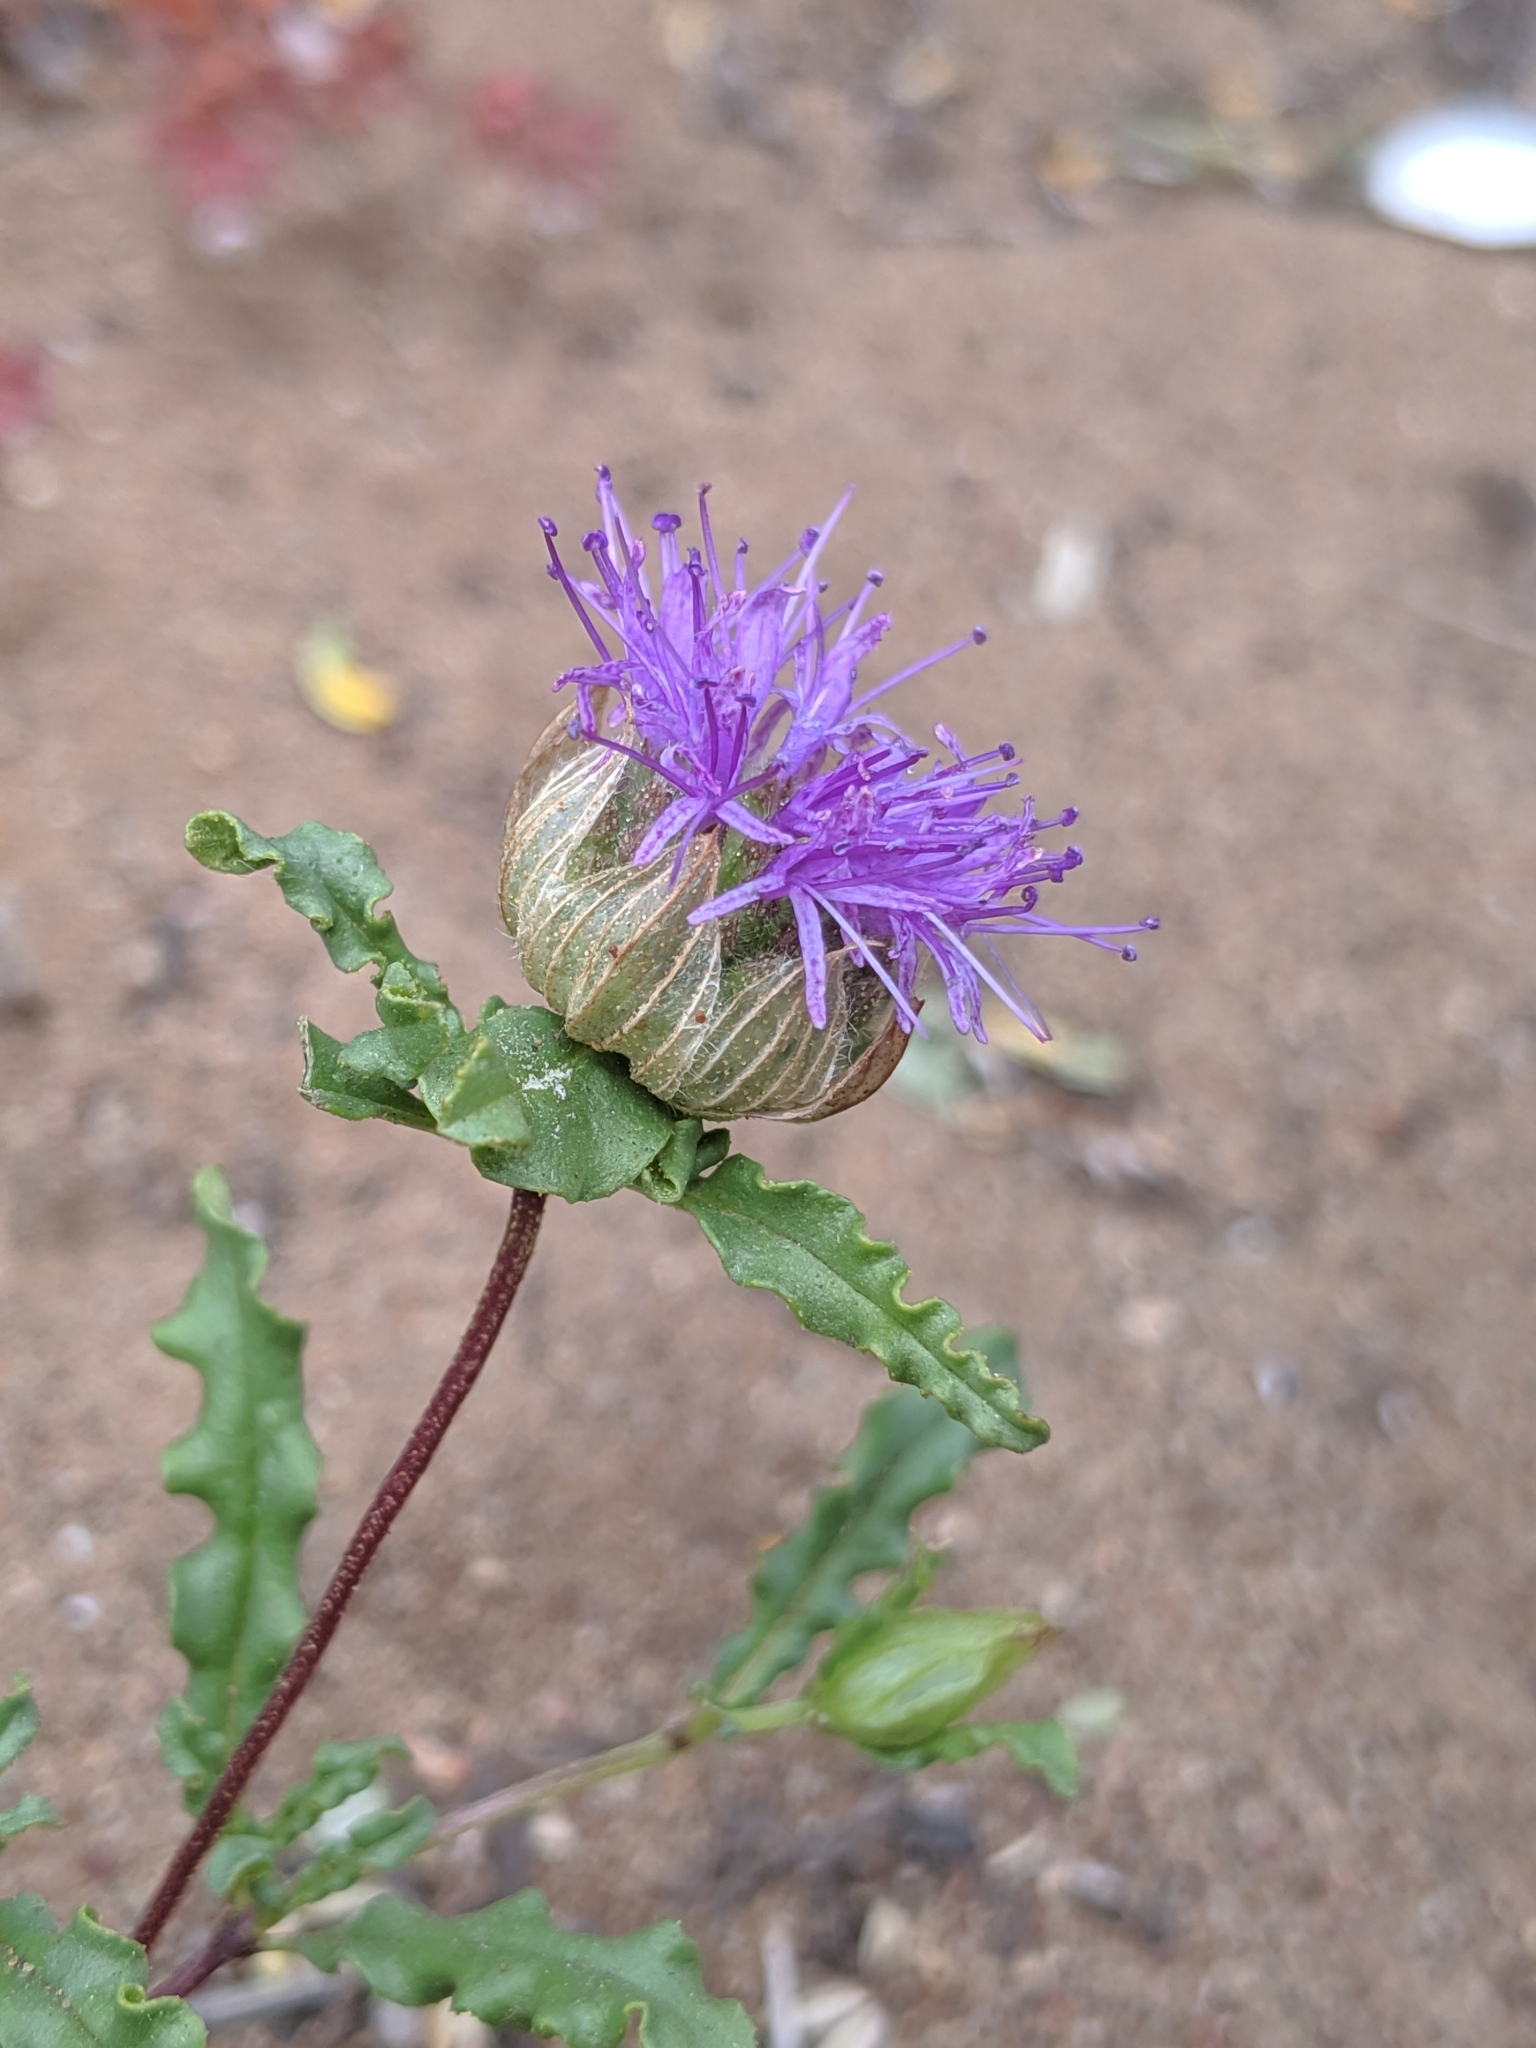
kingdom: Plantae
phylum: Tracheophyta
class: Magnoliopsida
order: Lamiales
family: Lamiaceae
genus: Monardella
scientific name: Monardella sinuata
